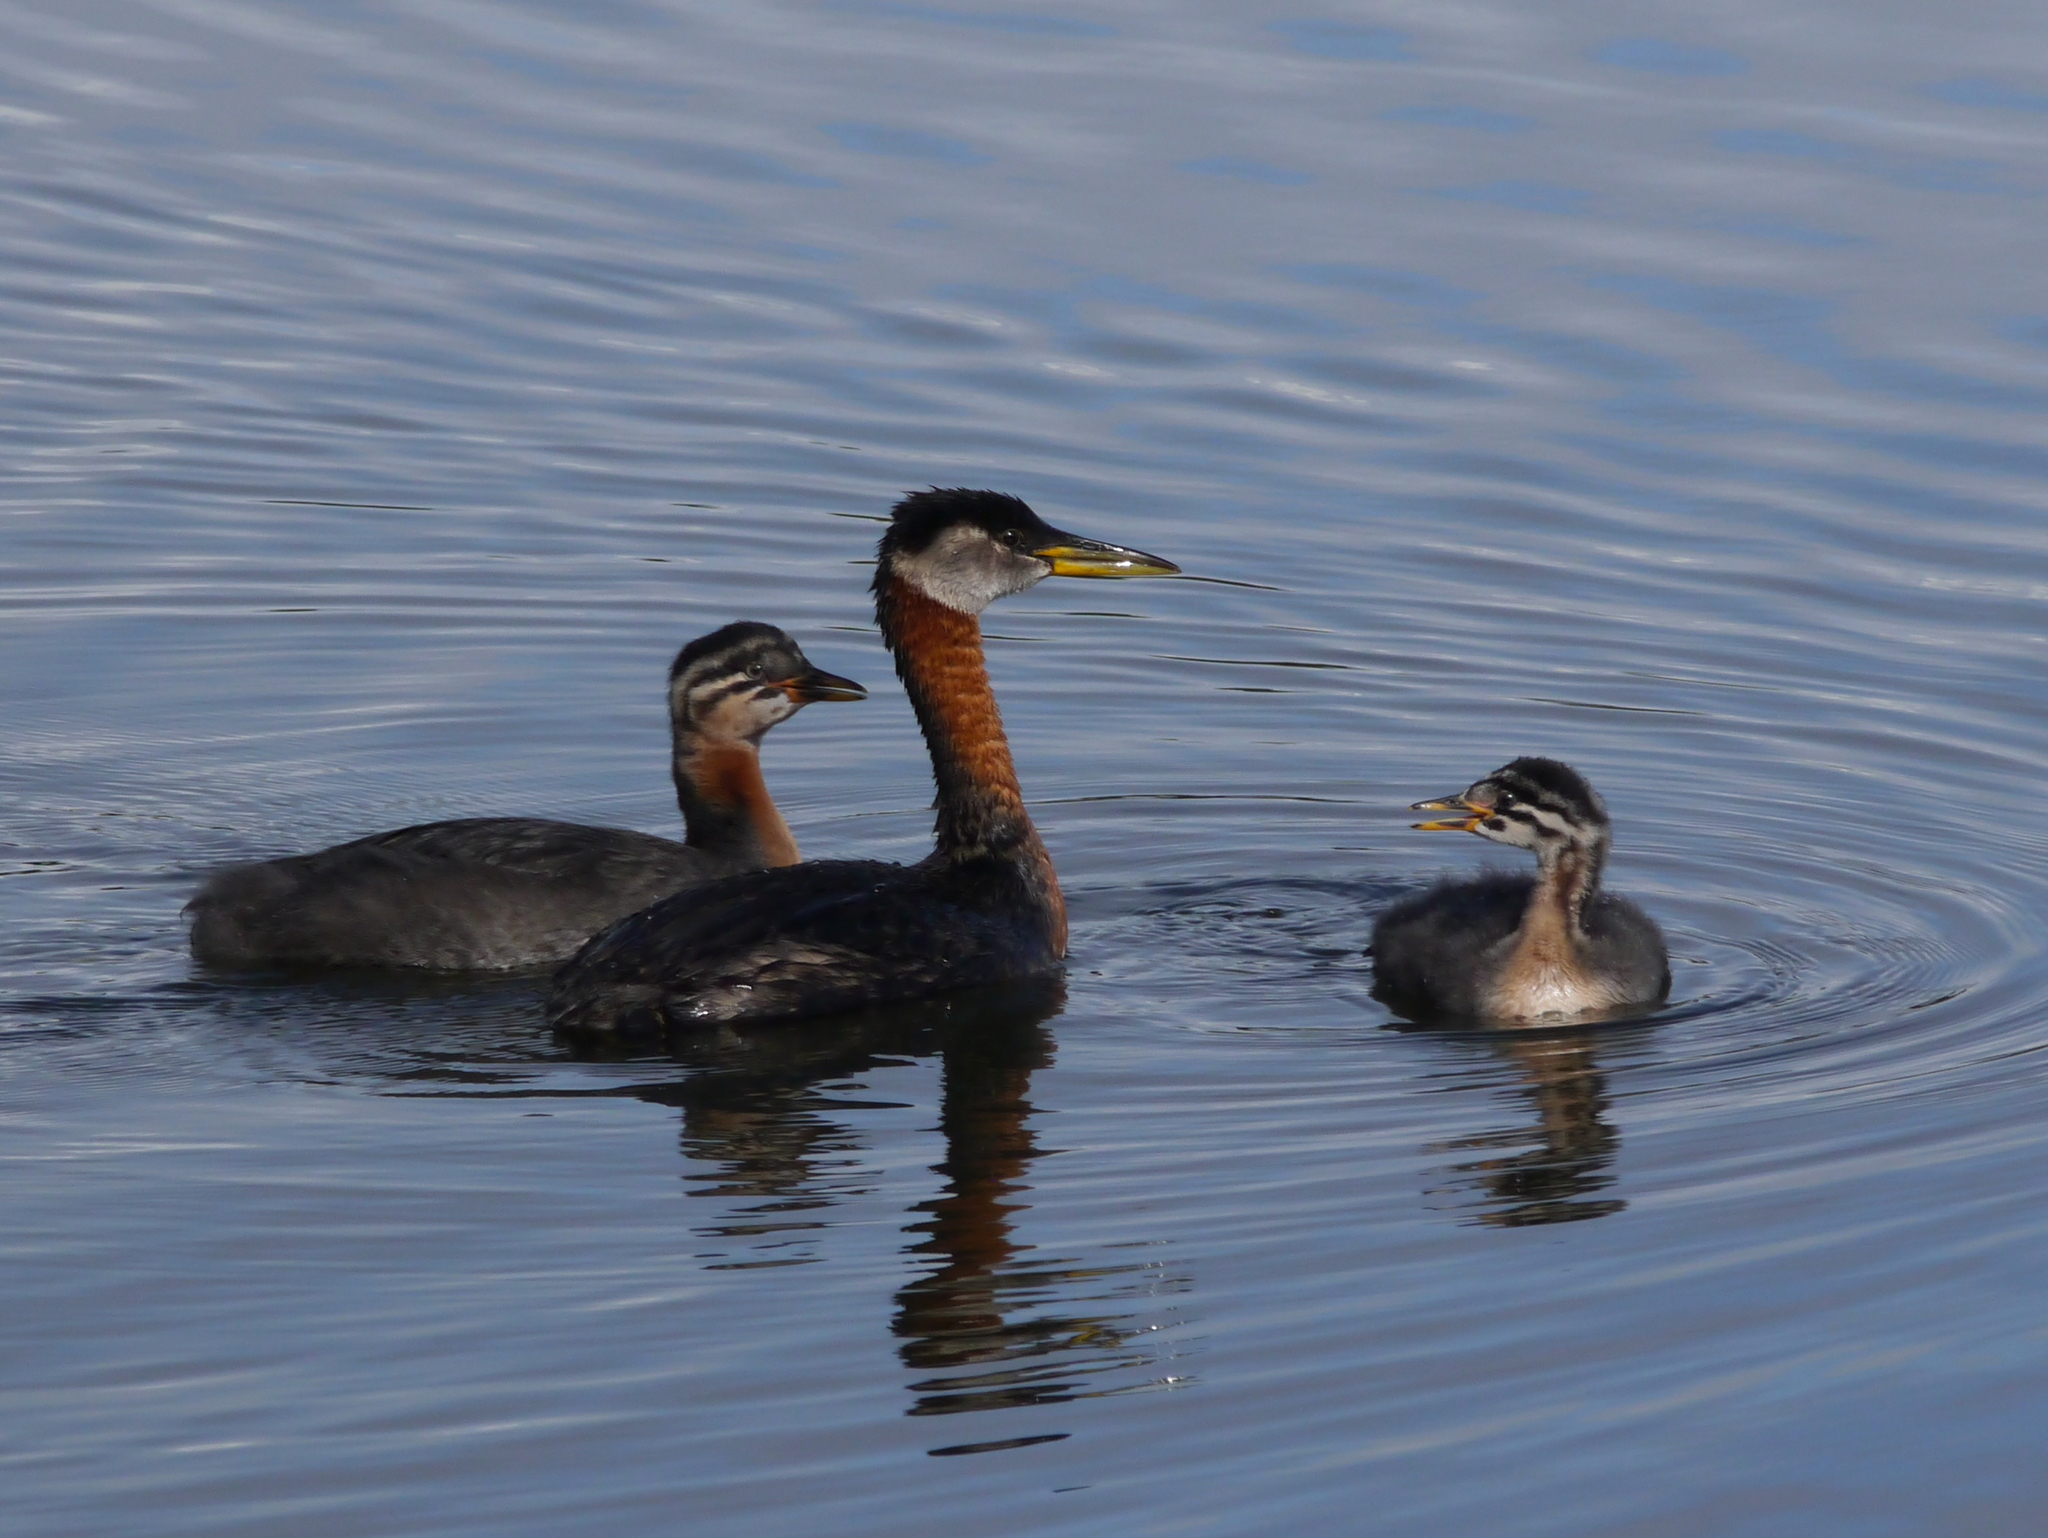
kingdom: Animalia
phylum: Chordata
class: Aves
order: Podicipediformes
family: Podicipedidae
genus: Podiceps
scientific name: Podiceps grisegena
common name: Red-necked grebe
